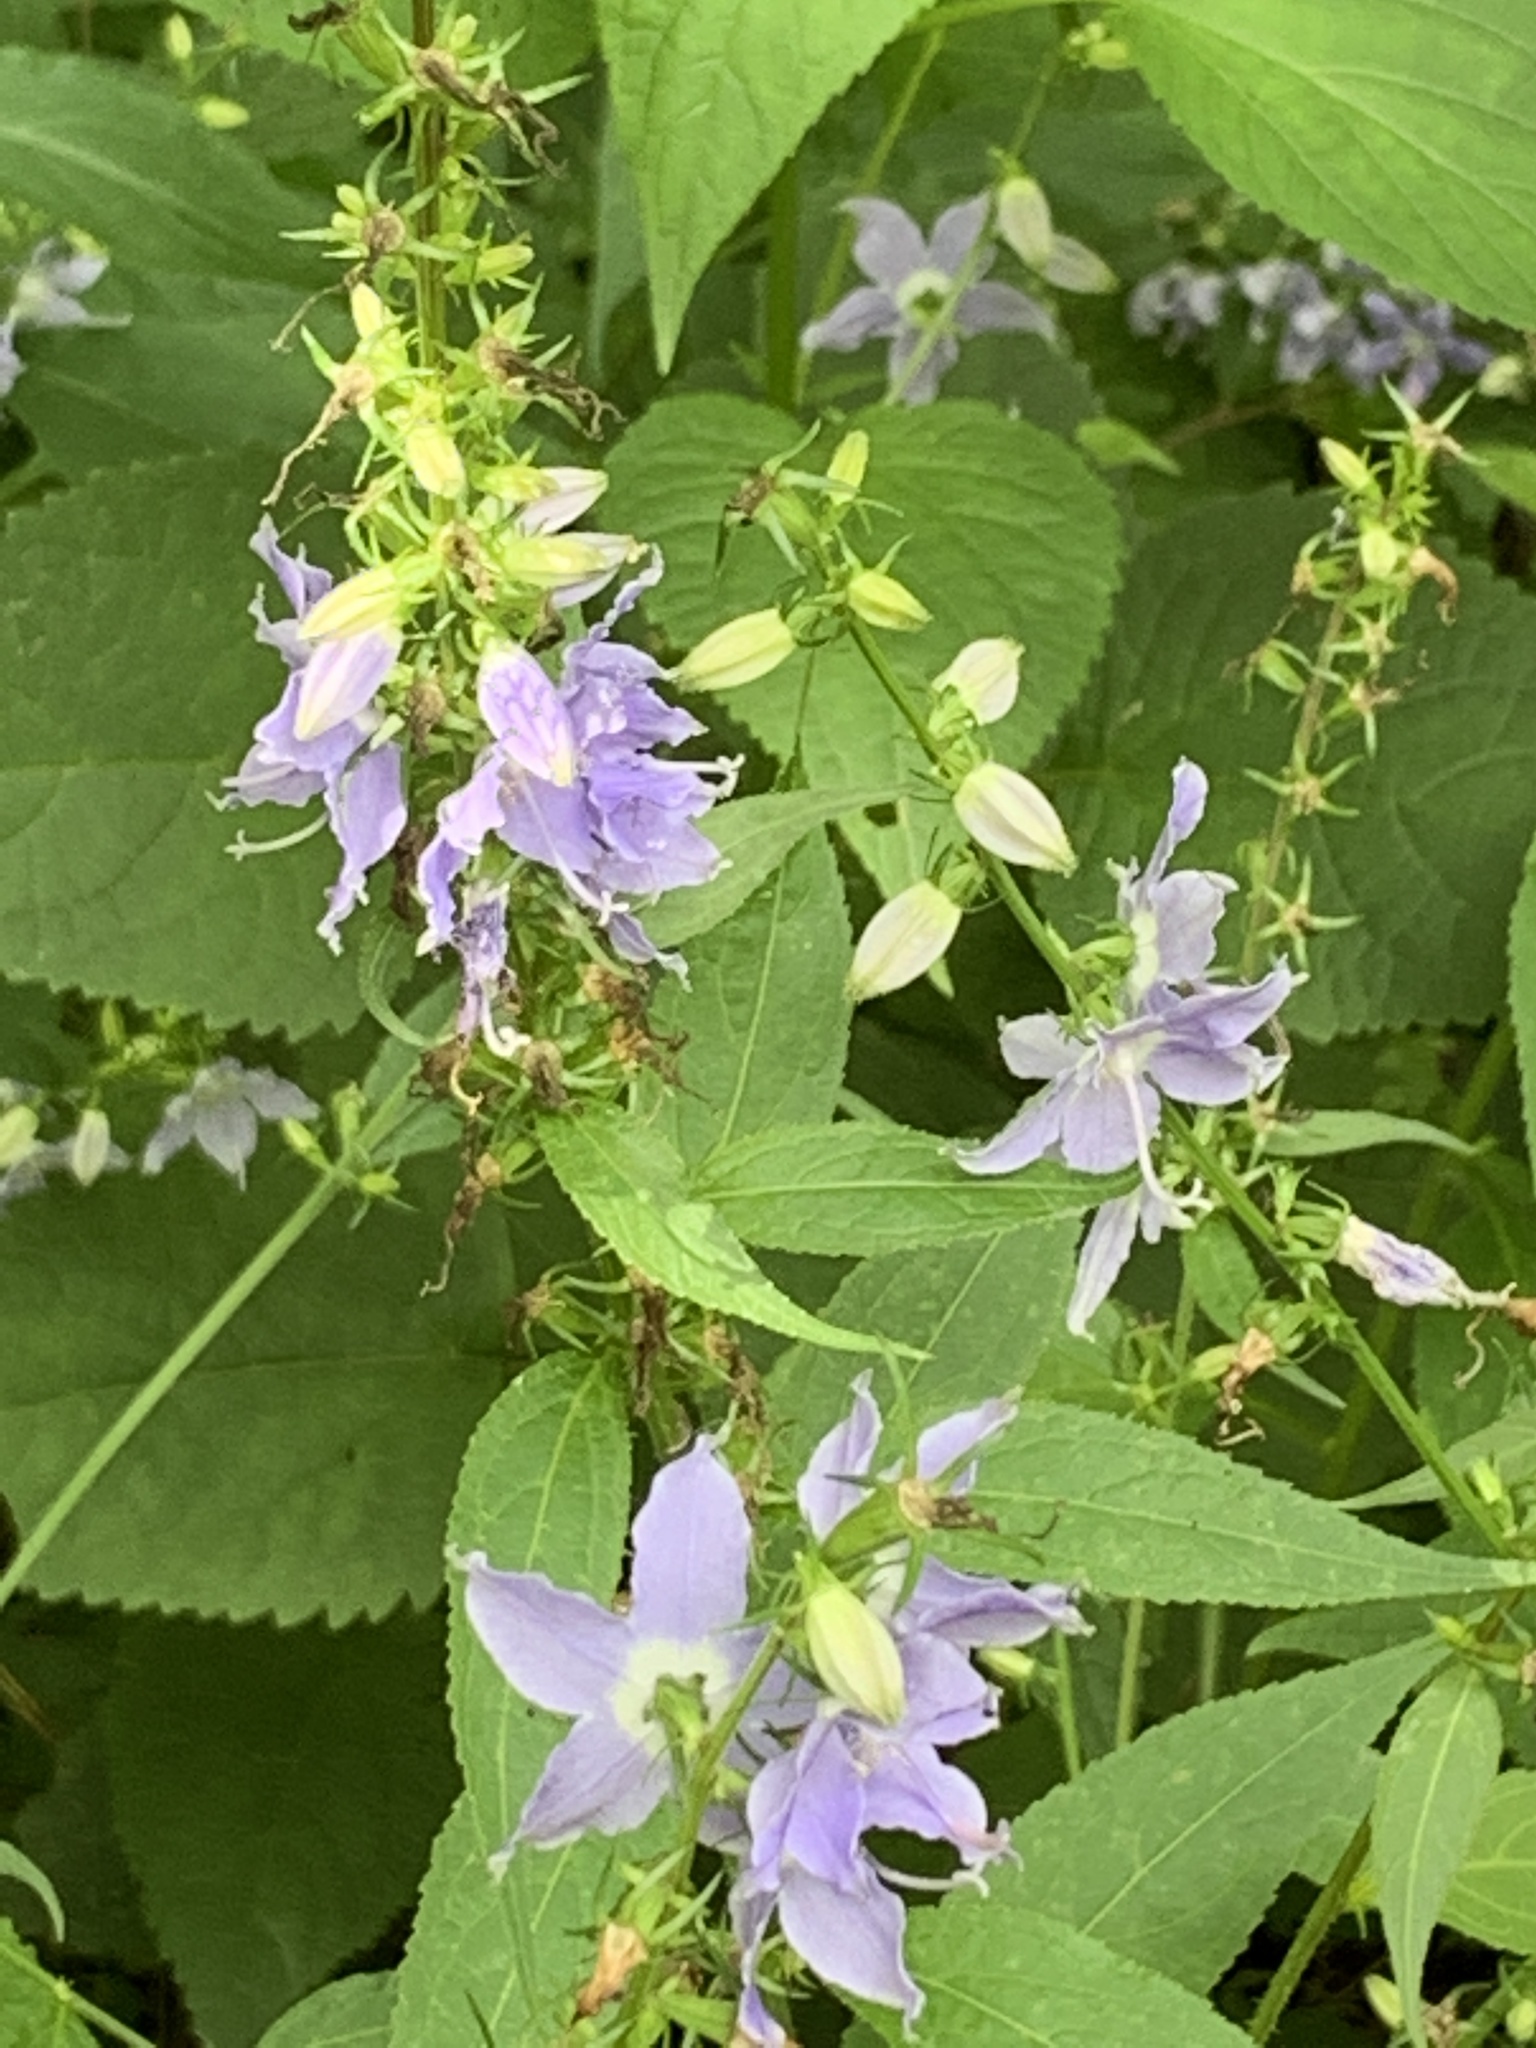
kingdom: Plantae
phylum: Tracheophyta
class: Magnoliopsida
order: Asterales
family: Campanulaceae
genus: Campanulastrum
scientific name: Campanulastrum americanum
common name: American bellflower
